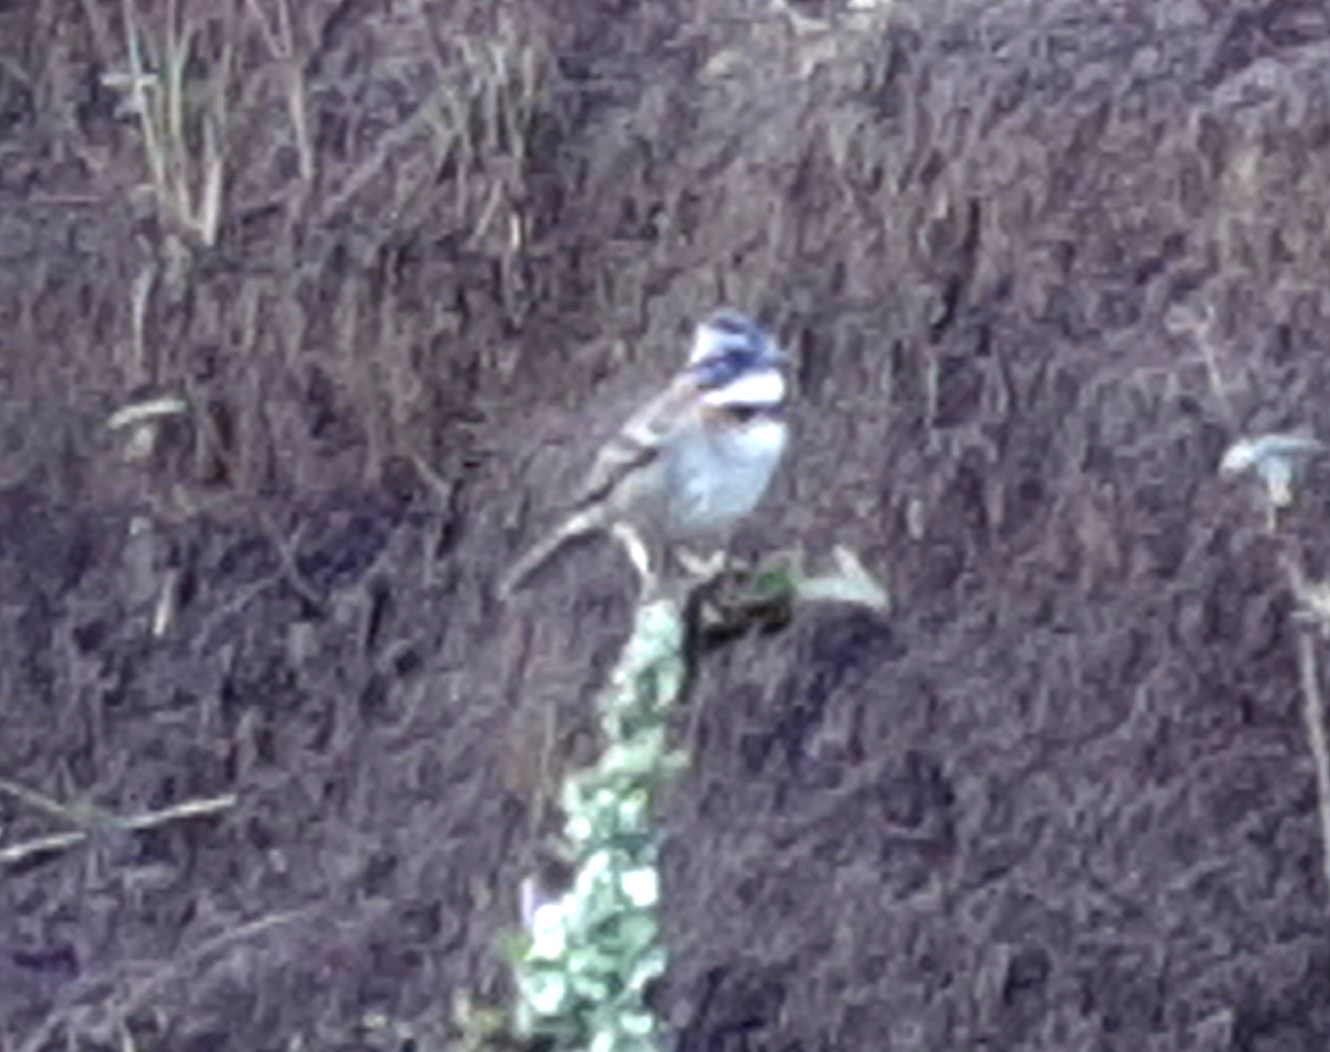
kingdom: Animalia
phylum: Chordata
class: Aves
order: Passeriformes
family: Passerellidae
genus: Zonotrichia
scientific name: Zonotrichia capensis
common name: Rufous-collared sparrow
